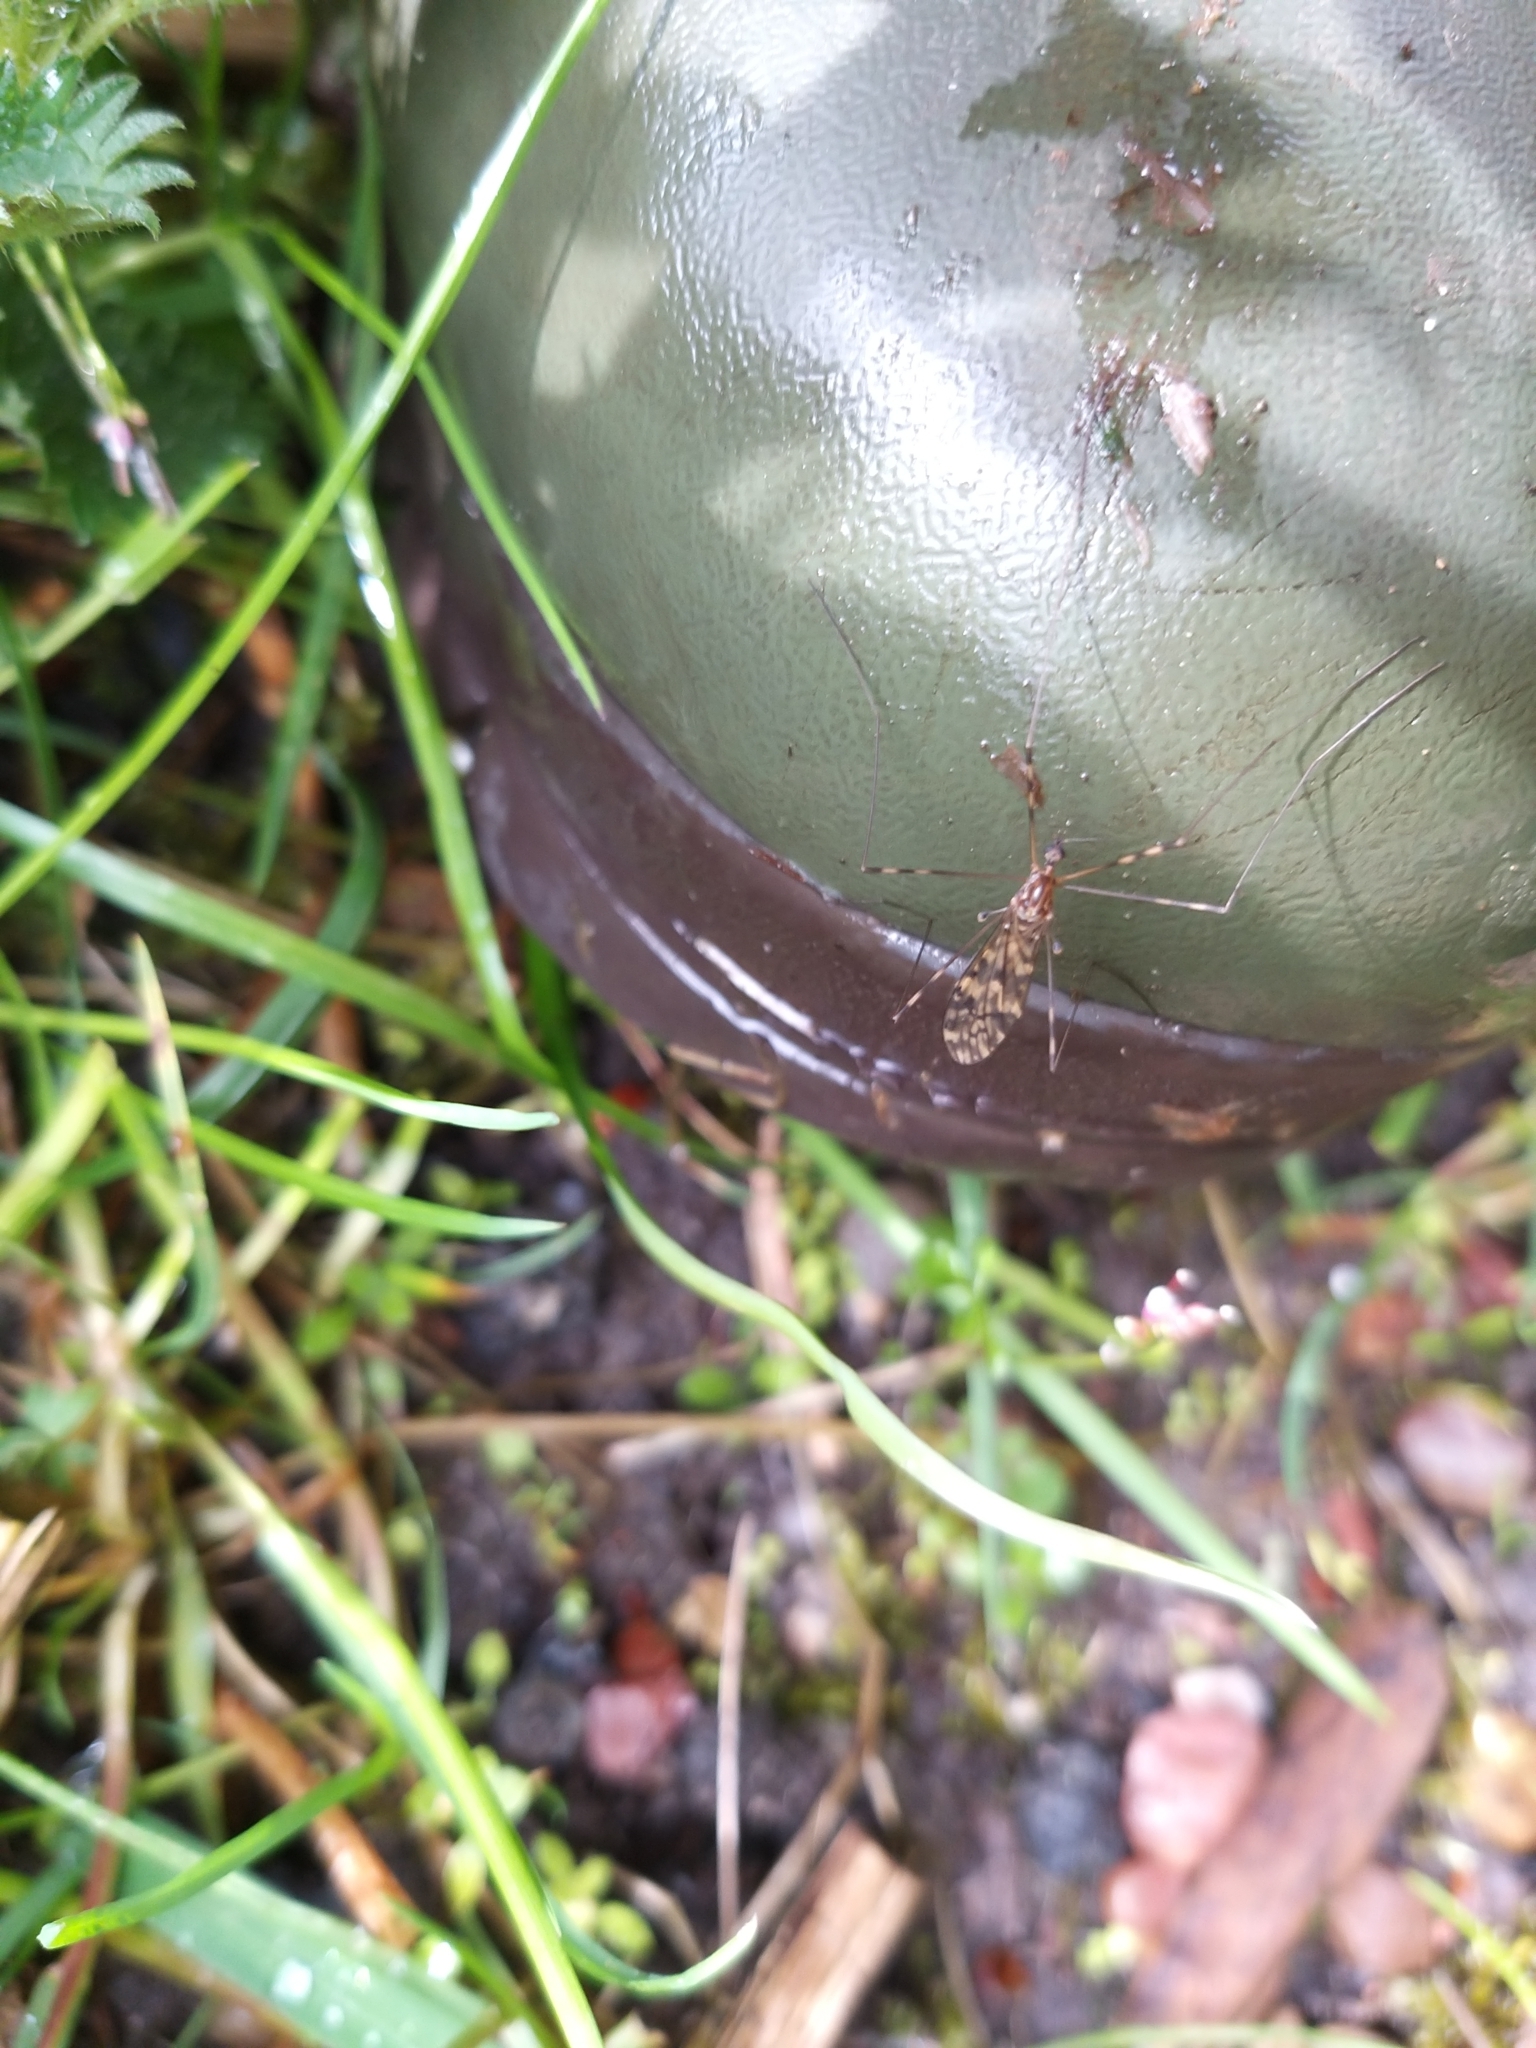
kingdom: Animalia
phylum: Arthropoda
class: Insecta
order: Diptera
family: Limoniidae
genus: Limonia
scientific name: Limonia nubeculosa
